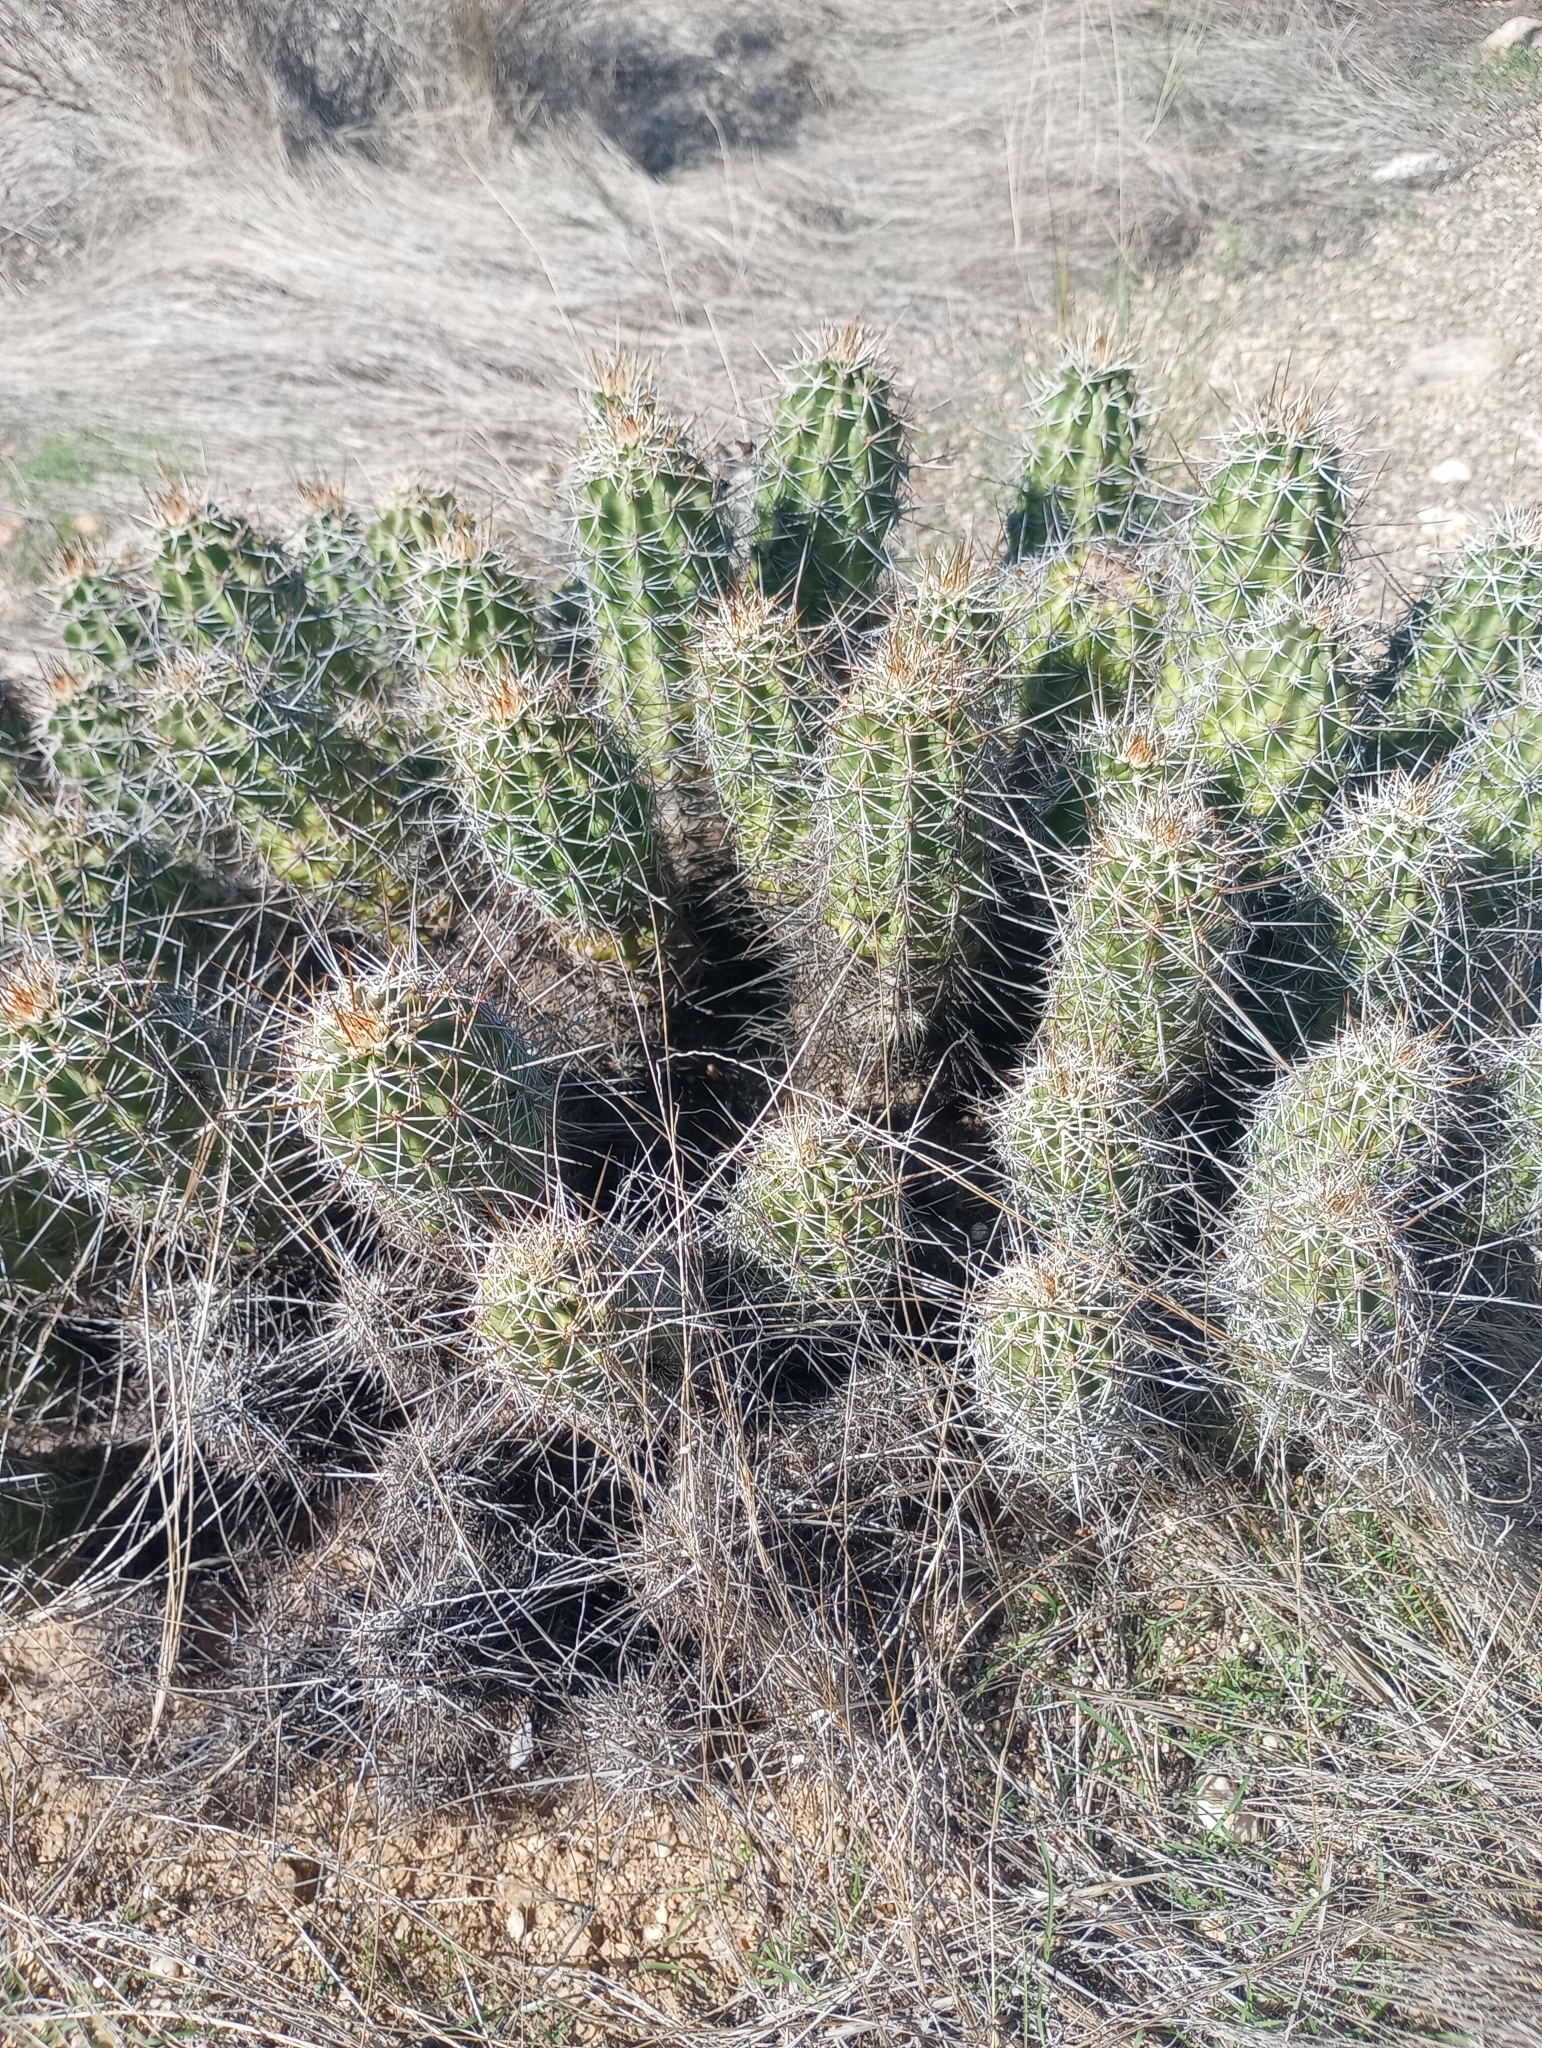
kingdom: Plantae
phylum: Tracheophyta
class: Magnoliopsida
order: Caryophyllales
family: Cactaceae
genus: Echinocereus
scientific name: Echinocereus fasciculatus
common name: Bundle hedgehog
